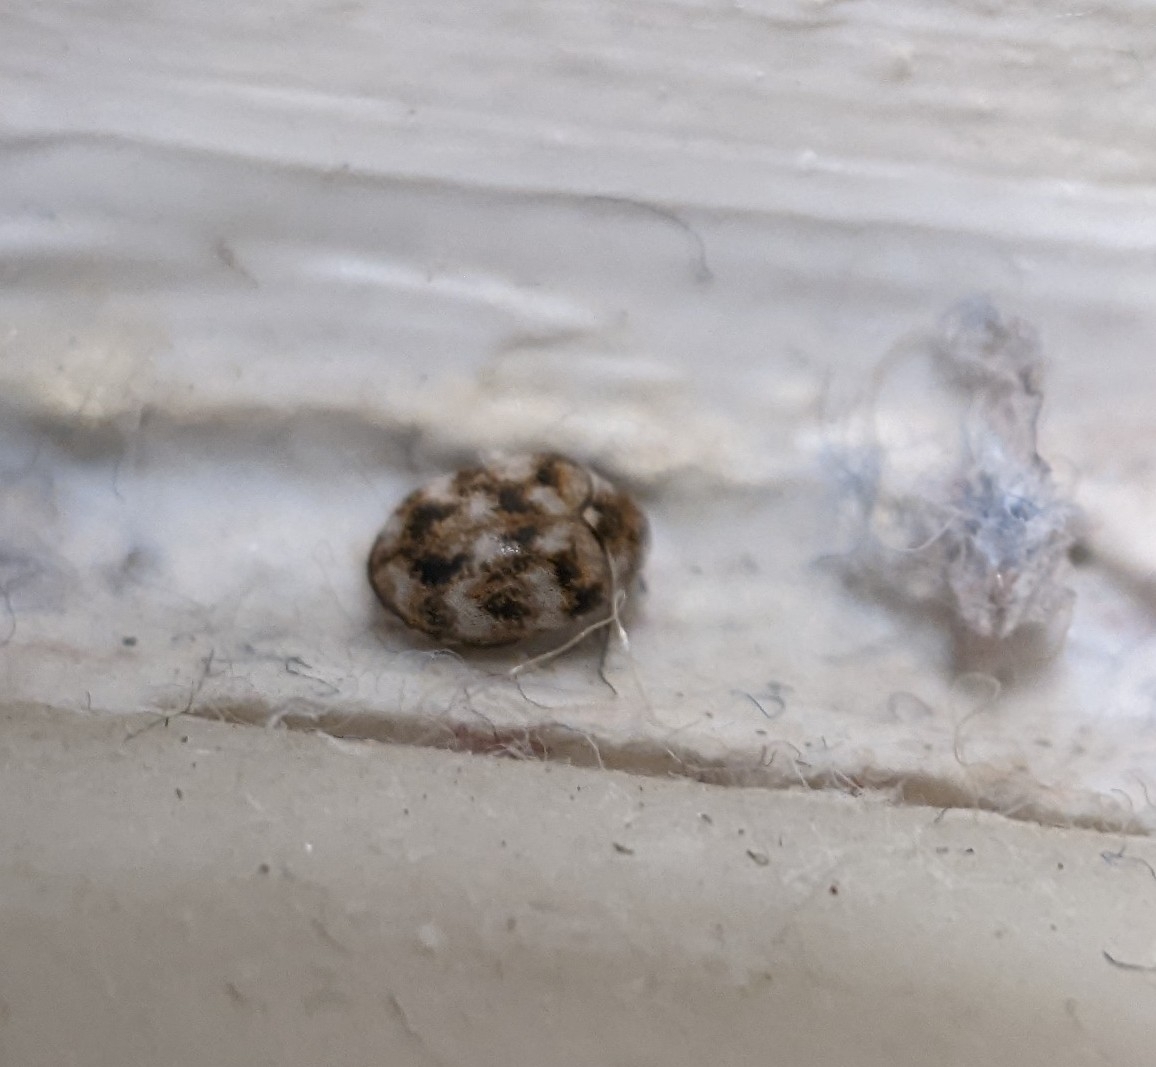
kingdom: Animalia
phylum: Arthropoda
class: Insecta
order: Coleoptera
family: Dermestidae
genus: Anthrenus
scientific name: Anthrenus verbasci
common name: Varied carpet beetle
